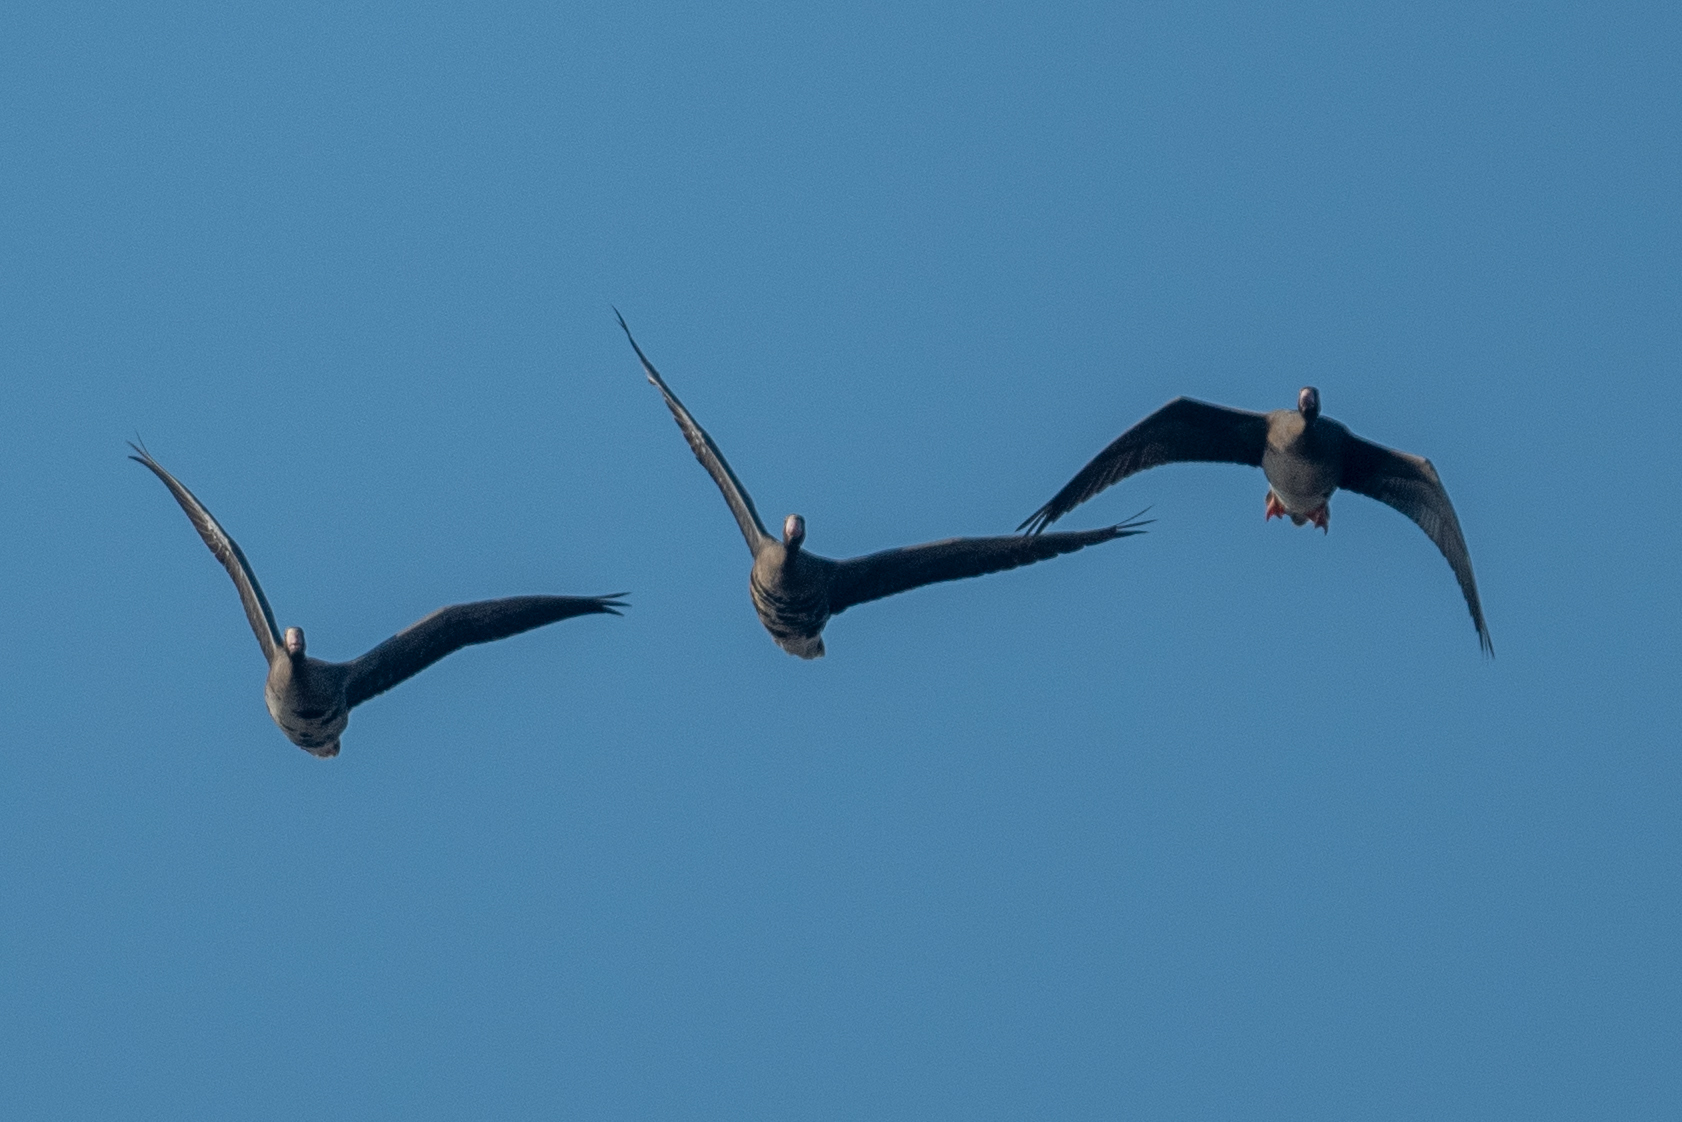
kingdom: Animalia
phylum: Chordata
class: Aves
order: Anseriformes
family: Anatidae
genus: Anser
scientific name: Anser albifrons
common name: Greater white-fronted goose
